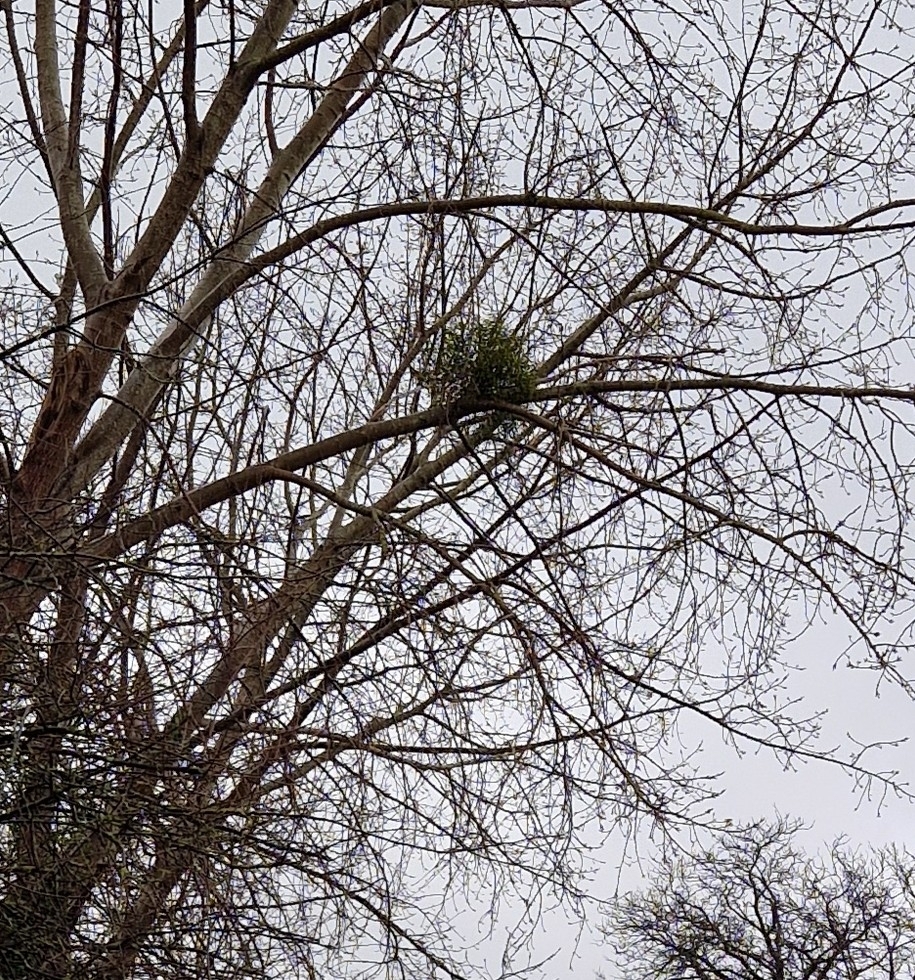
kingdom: Plantae
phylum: Tracheophyta
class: Magnoliopsida
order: Santalales
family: Viscaceae
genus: Viscum
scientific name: Viscum album
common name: Mistletoe
